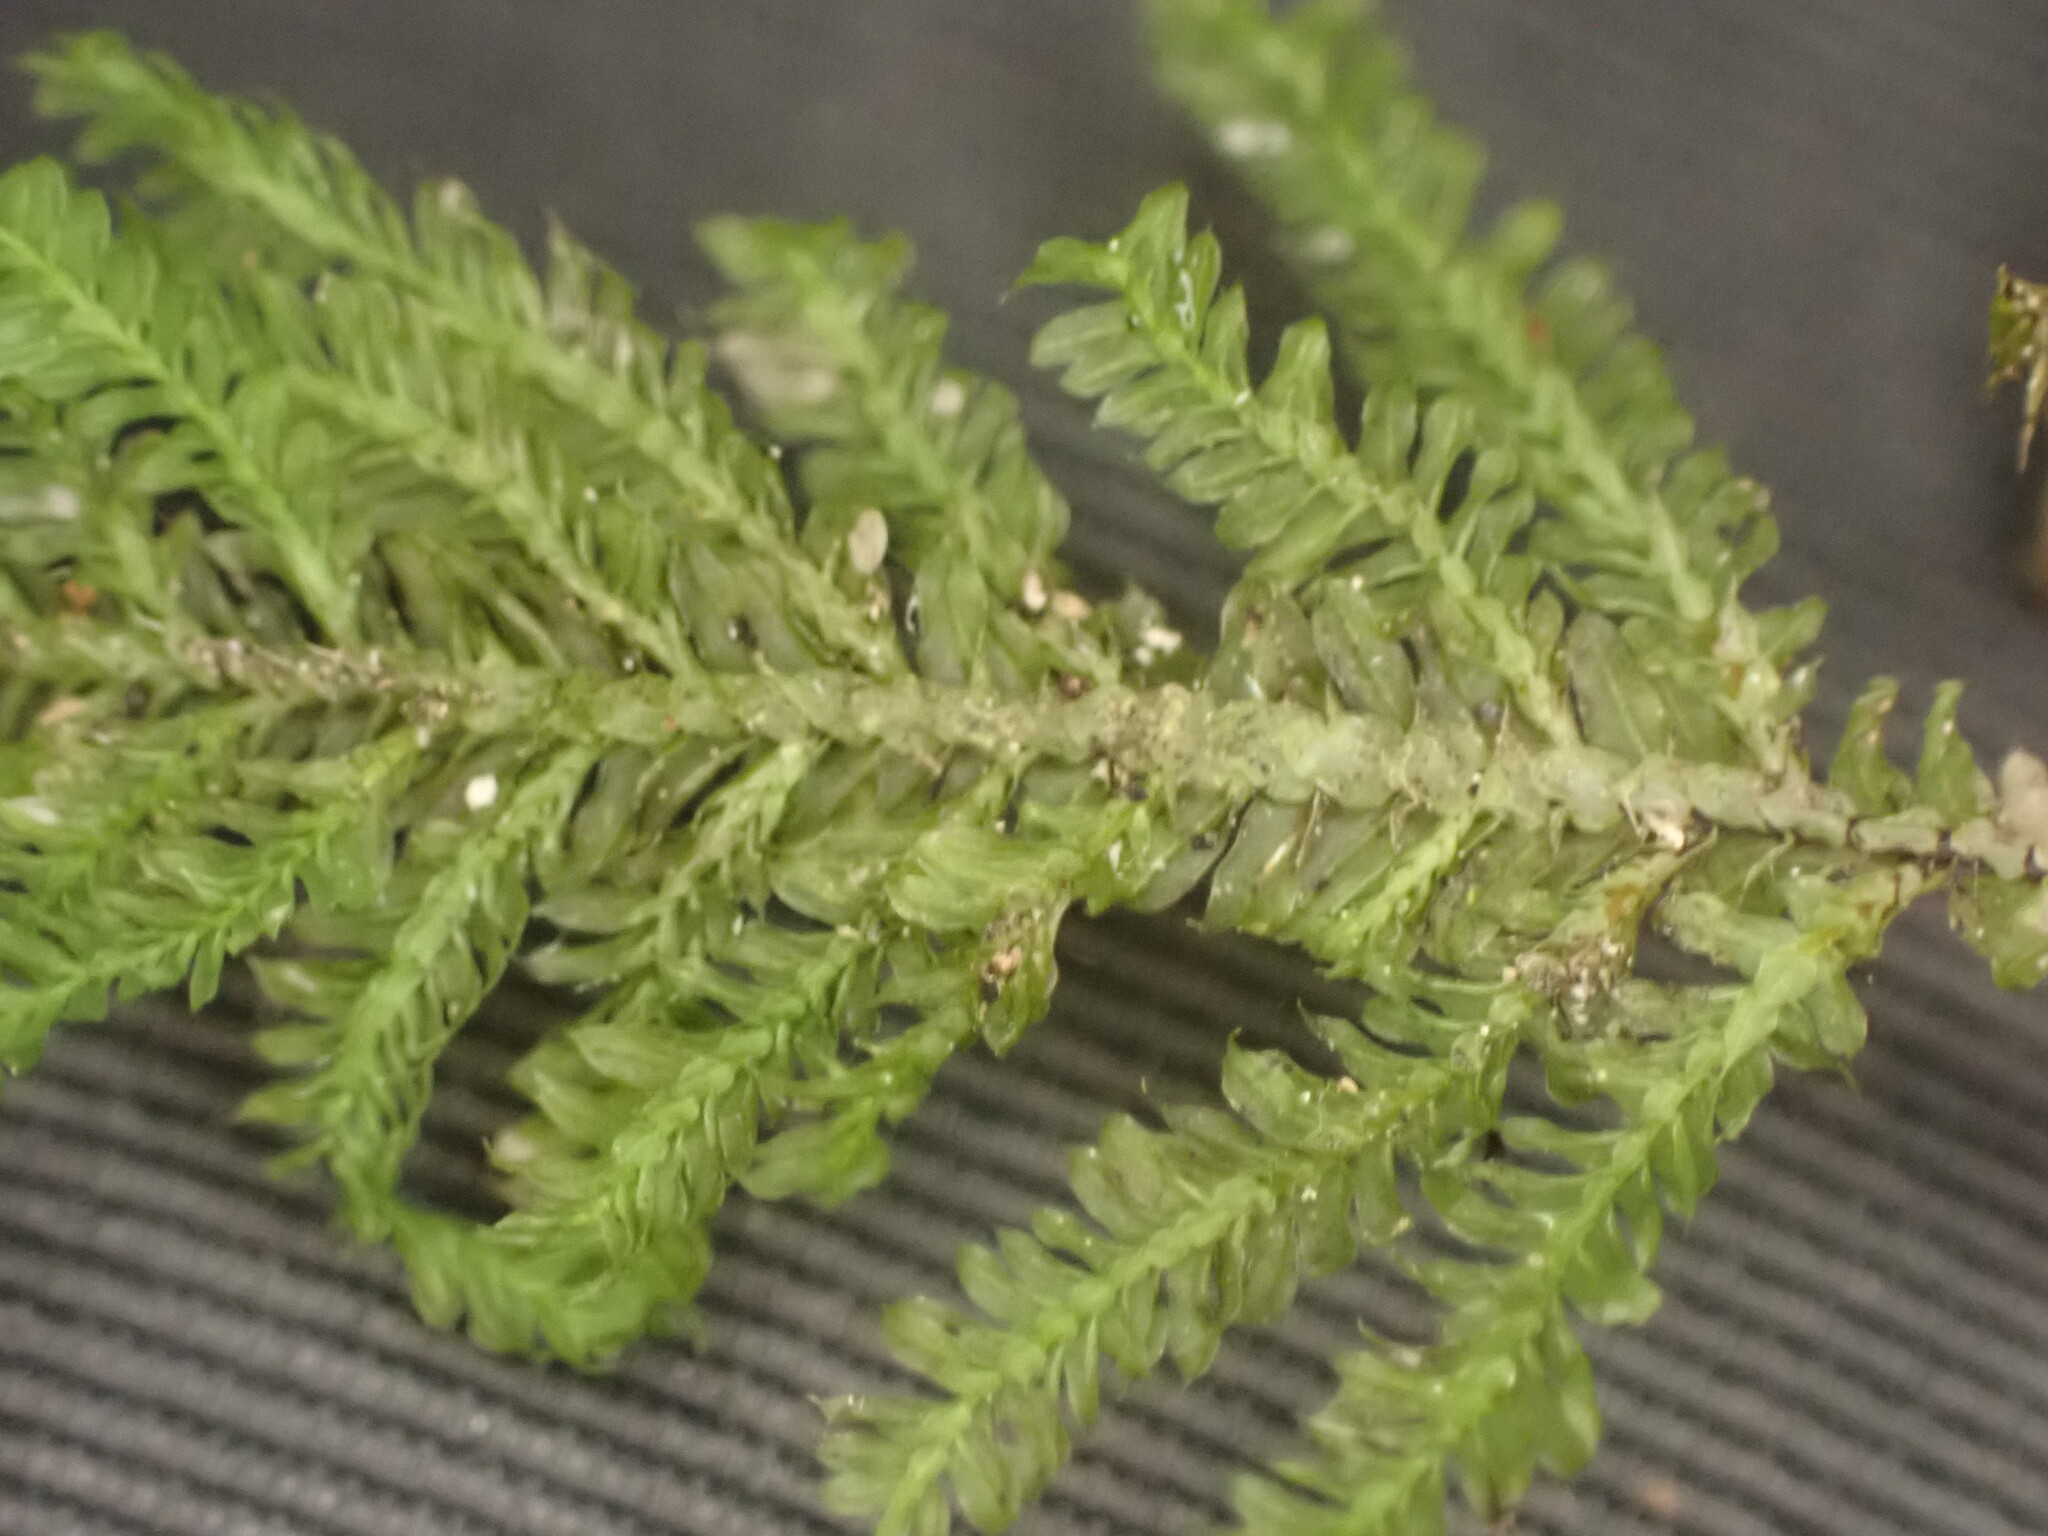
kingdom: Plantae
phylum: Bryophyta
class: Bryopsida
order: Hypopterygiales
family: Hypopterygiaceae
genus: Lopidium
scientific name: Lopidium concinnum
